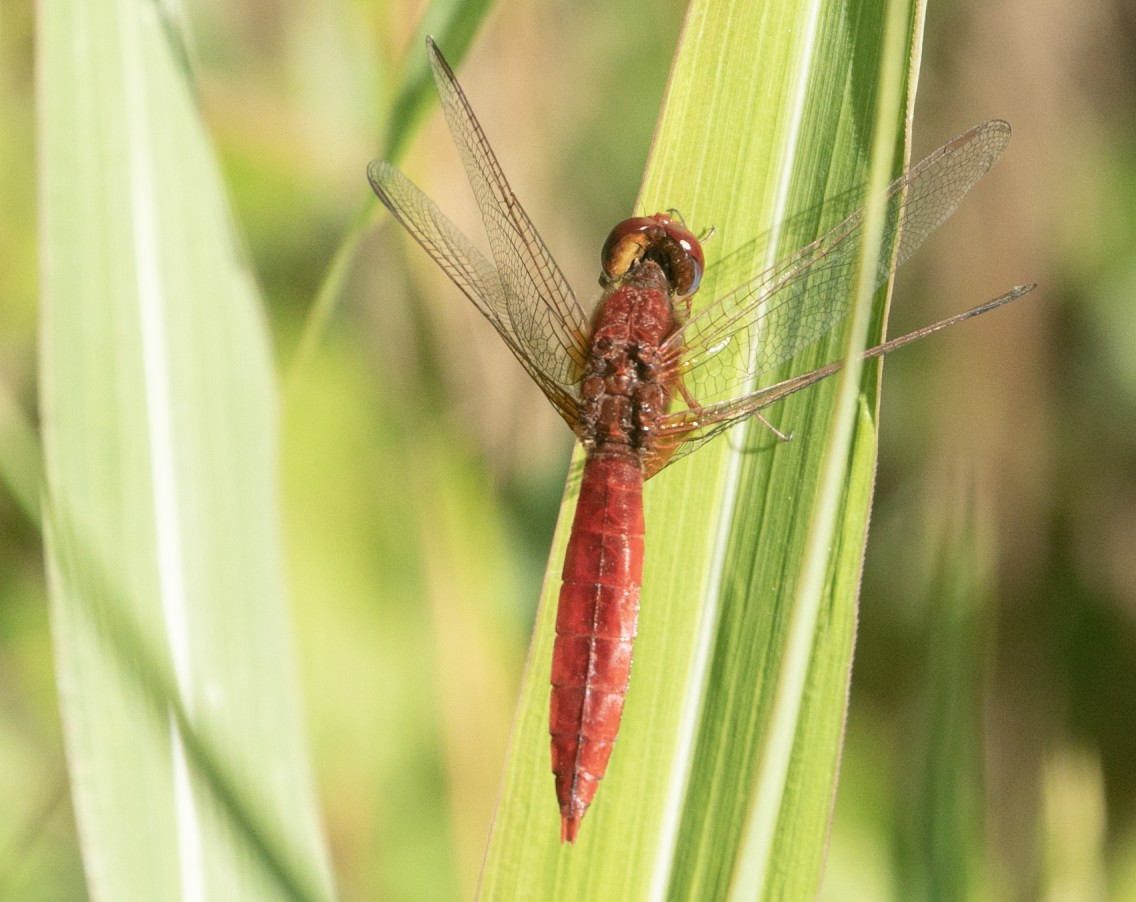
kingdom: Animalia
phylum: Arthropoda
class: Insecta
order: Odonata
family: Libellulidae
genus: Crocothemis
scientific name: Crocothemis erythraea
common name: Scarlet dragonfly
